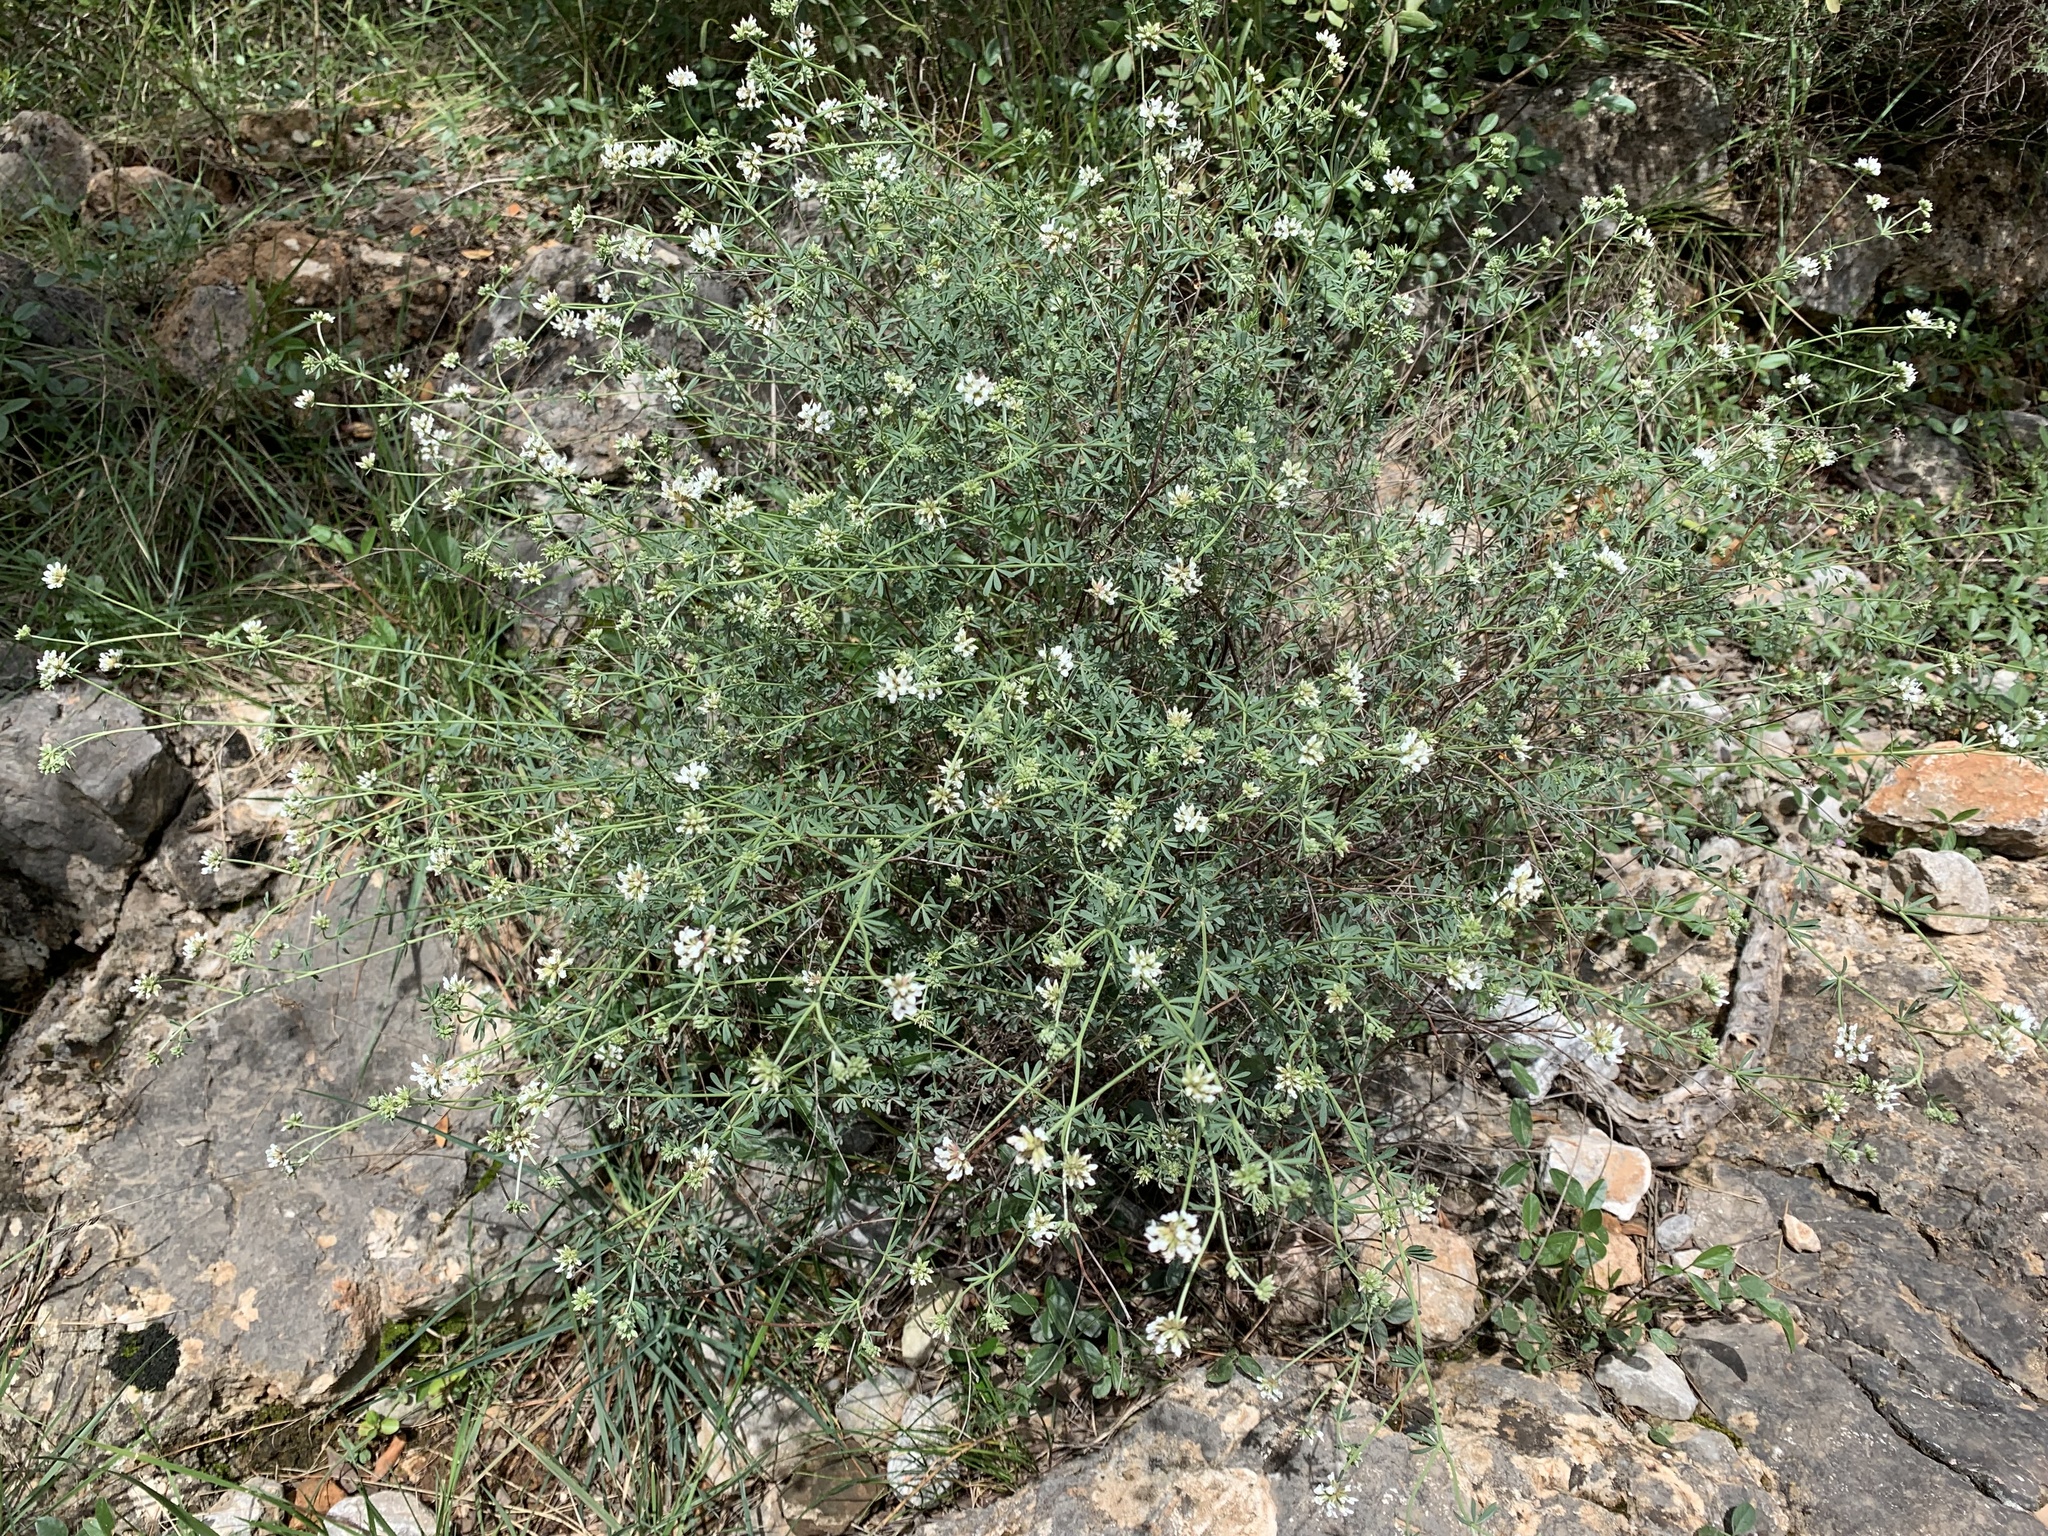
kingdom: Plantae
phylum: Tracheophyta
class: Magnoliopsida
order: Fabales
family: Fabaceae
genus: Lotus
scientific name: Lotus dorycnium
